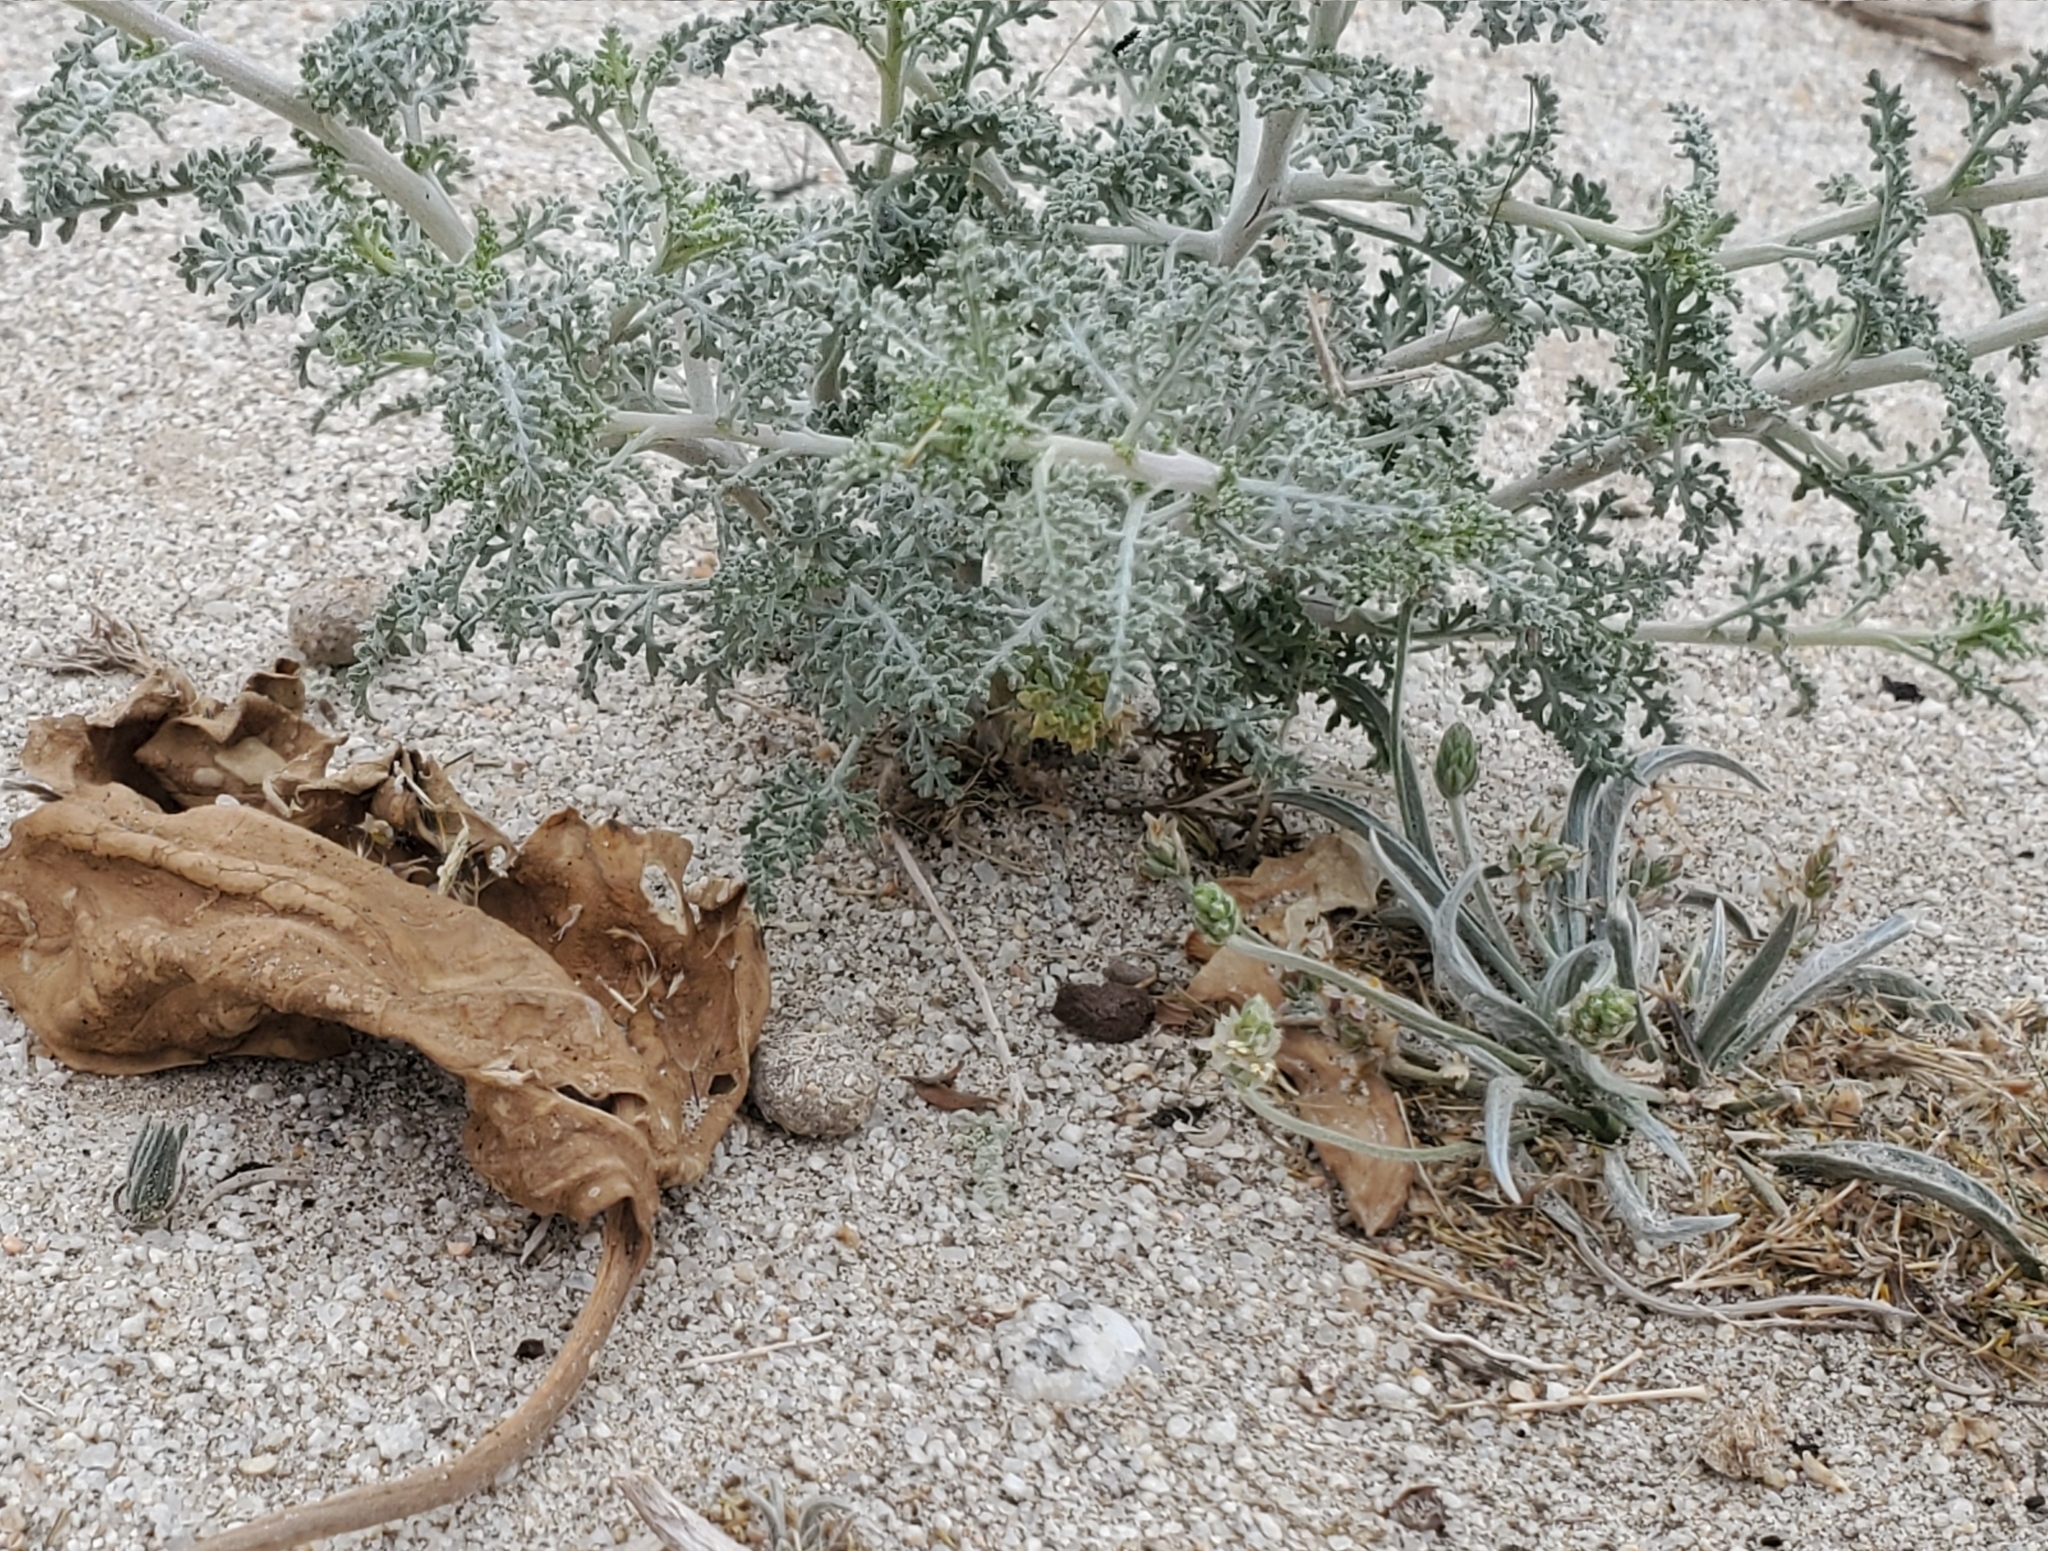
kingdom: Plantae
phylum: Tracheophyta
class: Magnoliopsida
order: Asterales
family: Asteraceae
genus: Ambrosia
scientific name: Ambrosia dumosa
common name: Bur-sage
